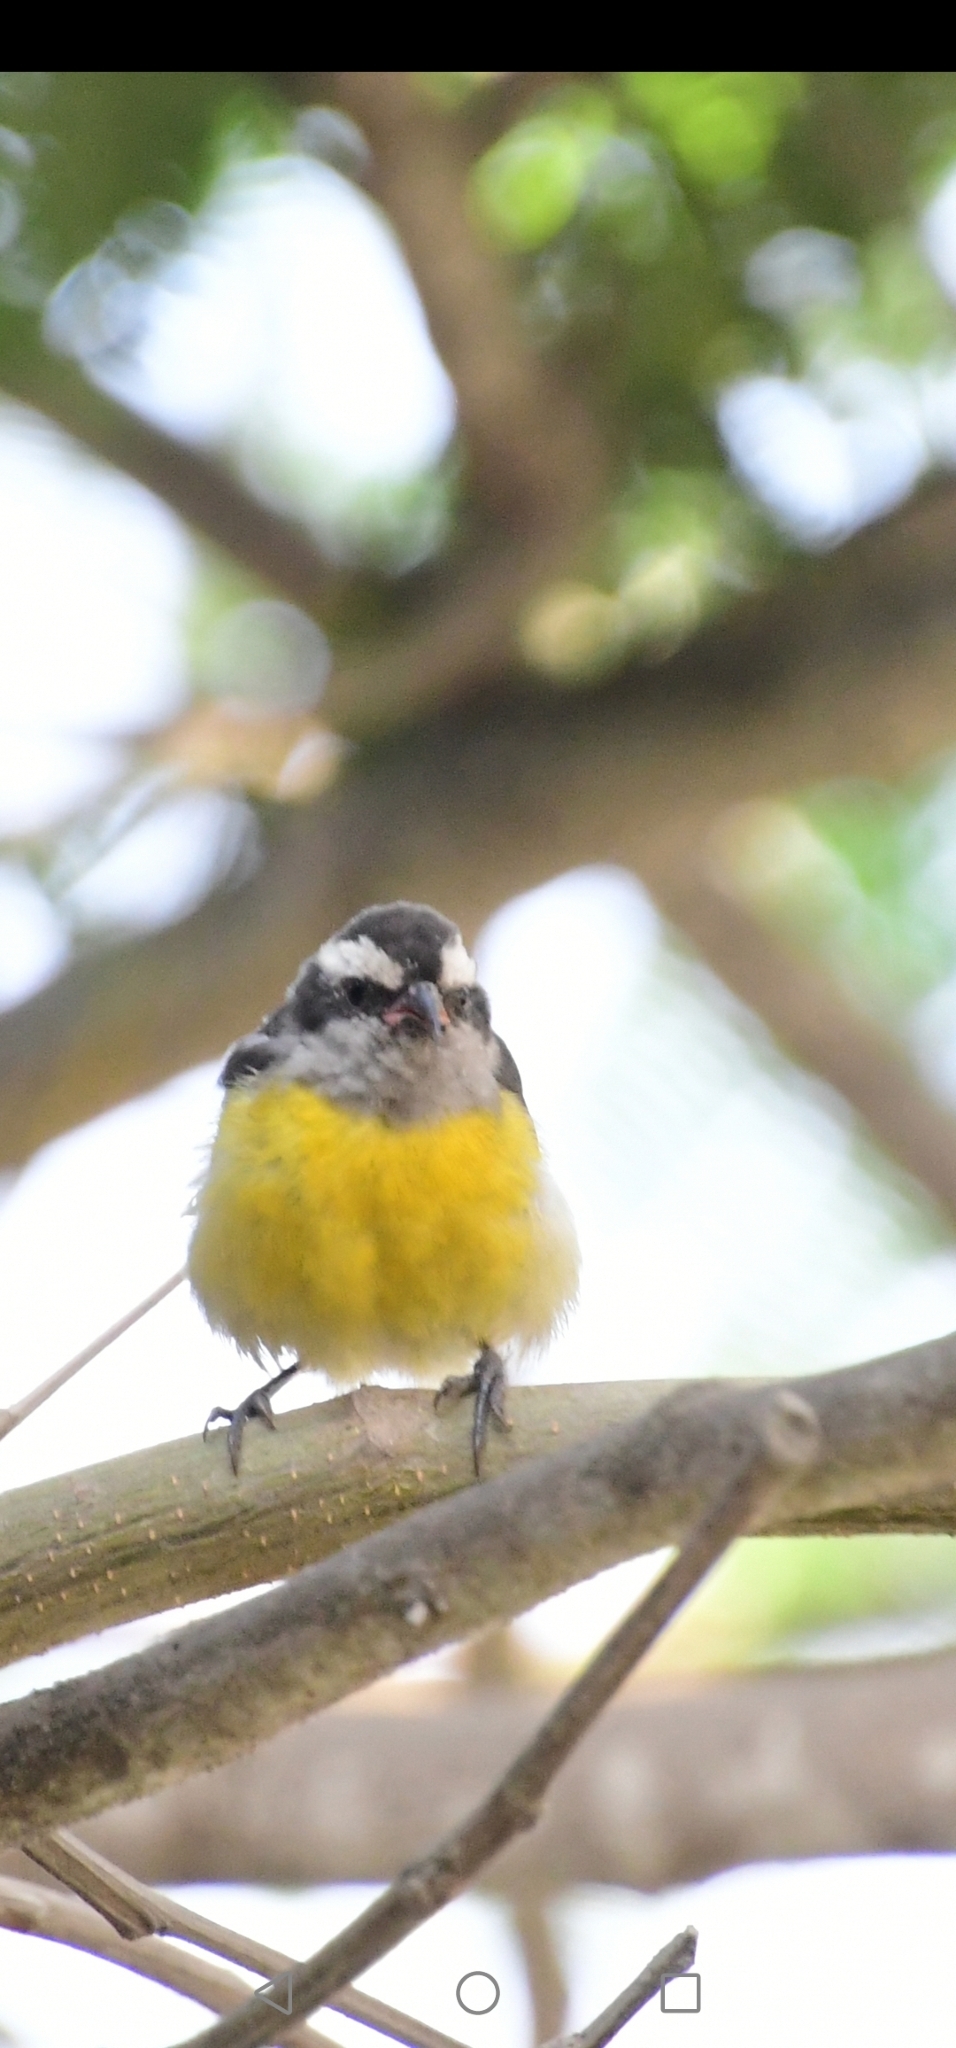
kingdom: Animalia
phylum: Chordata
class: Aves
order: Passeriformes
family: Thraupidae
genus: Coereba
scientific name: Coereba flaveola
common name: Bananaquit
